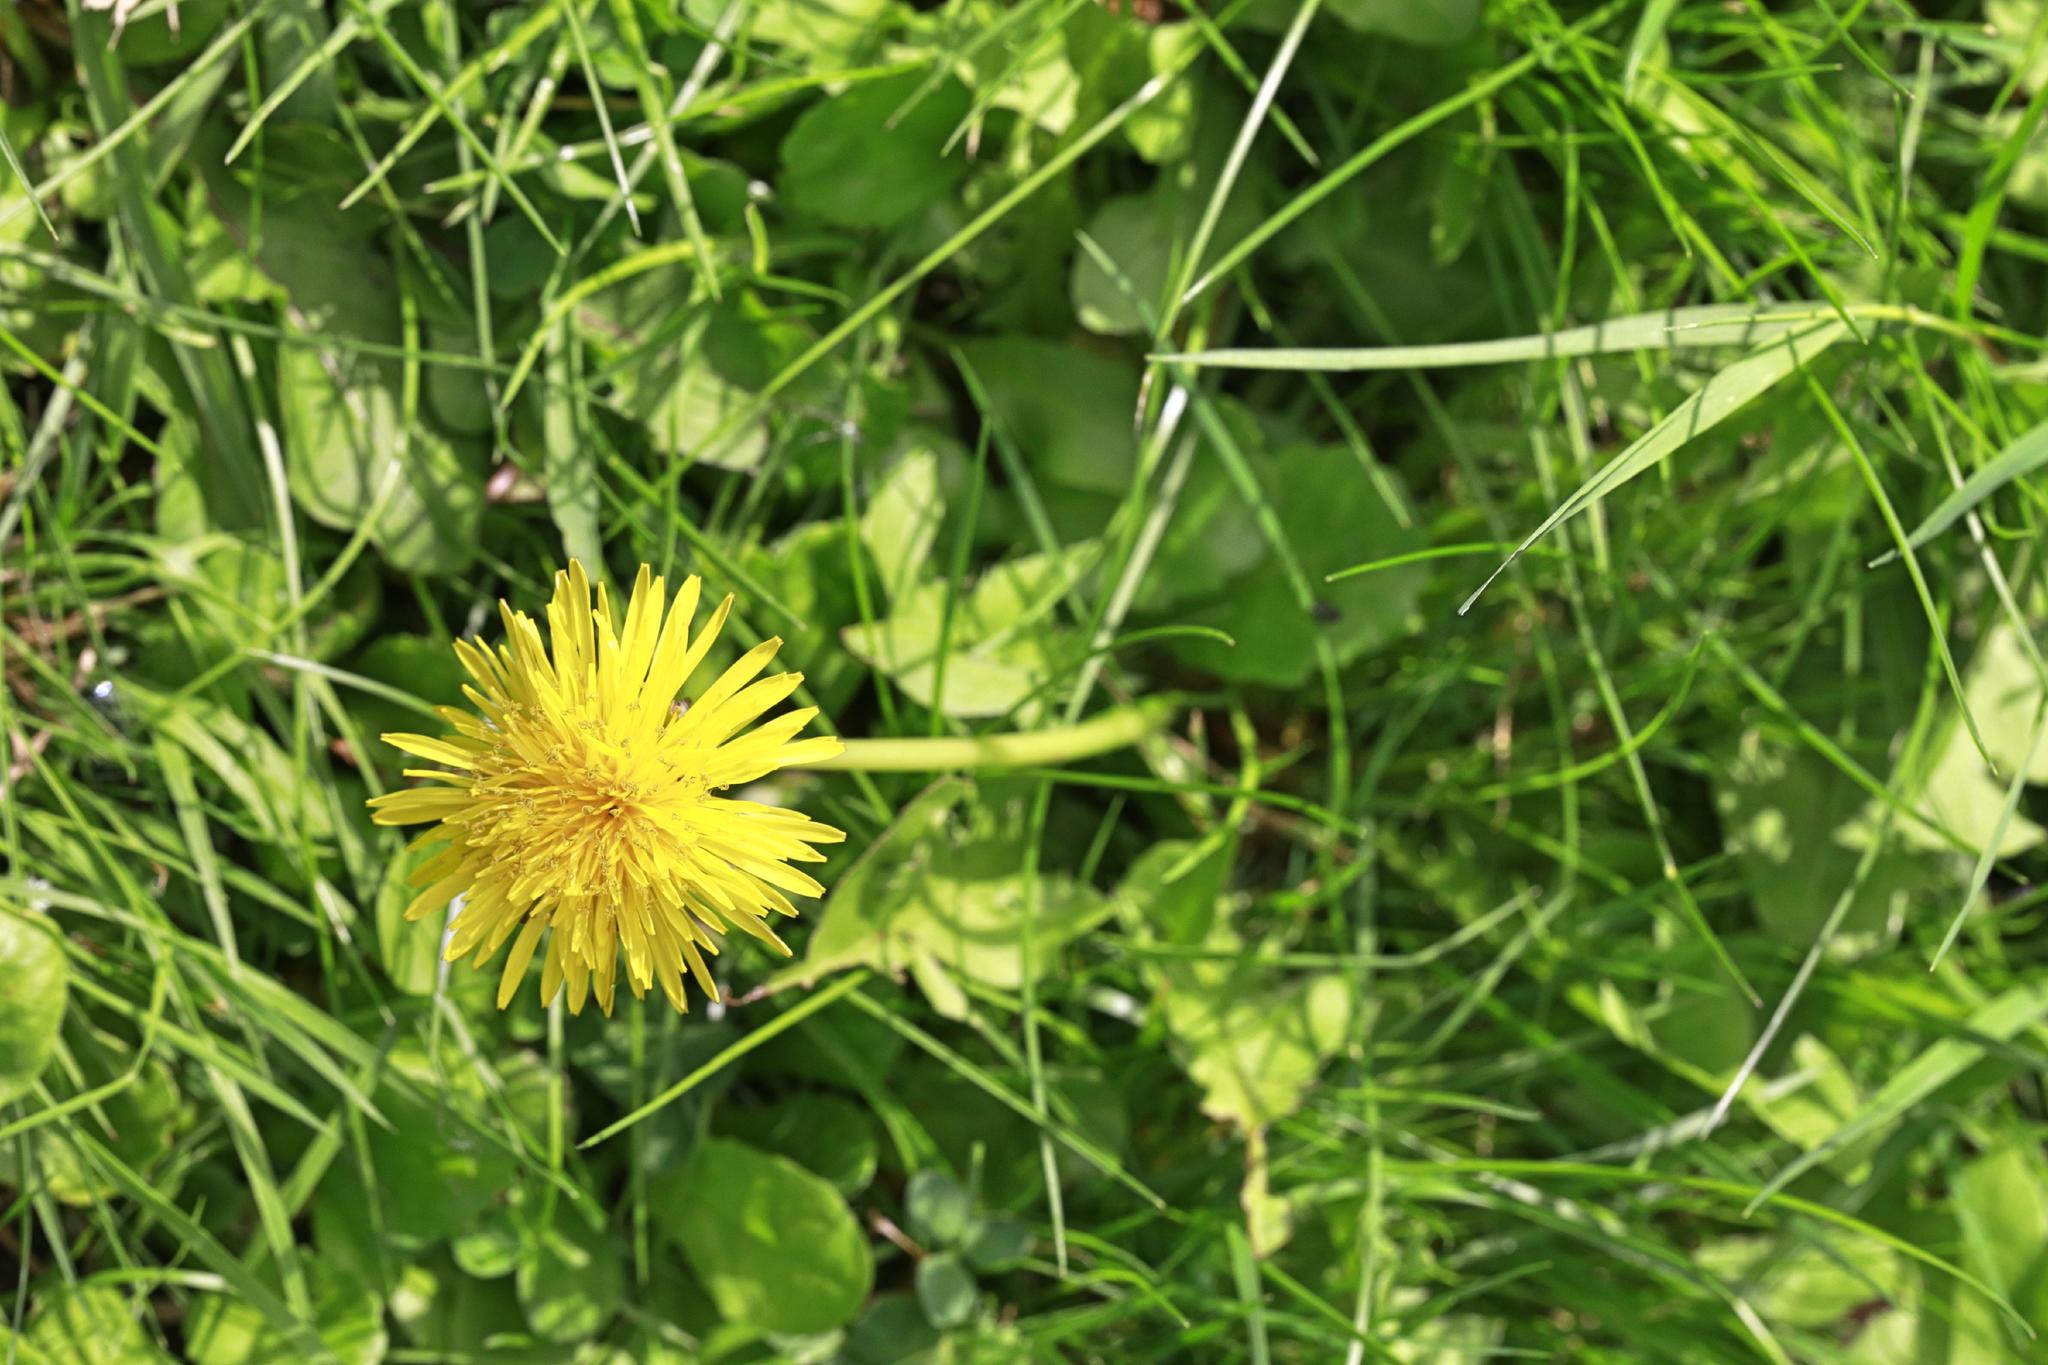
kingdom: Plantae
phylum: Tracheophyta
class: Magnoliopsida
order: Asterales
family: Asteraceae
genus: Taraxacum
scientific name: Taraxacum officinale
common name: Common dandelion
